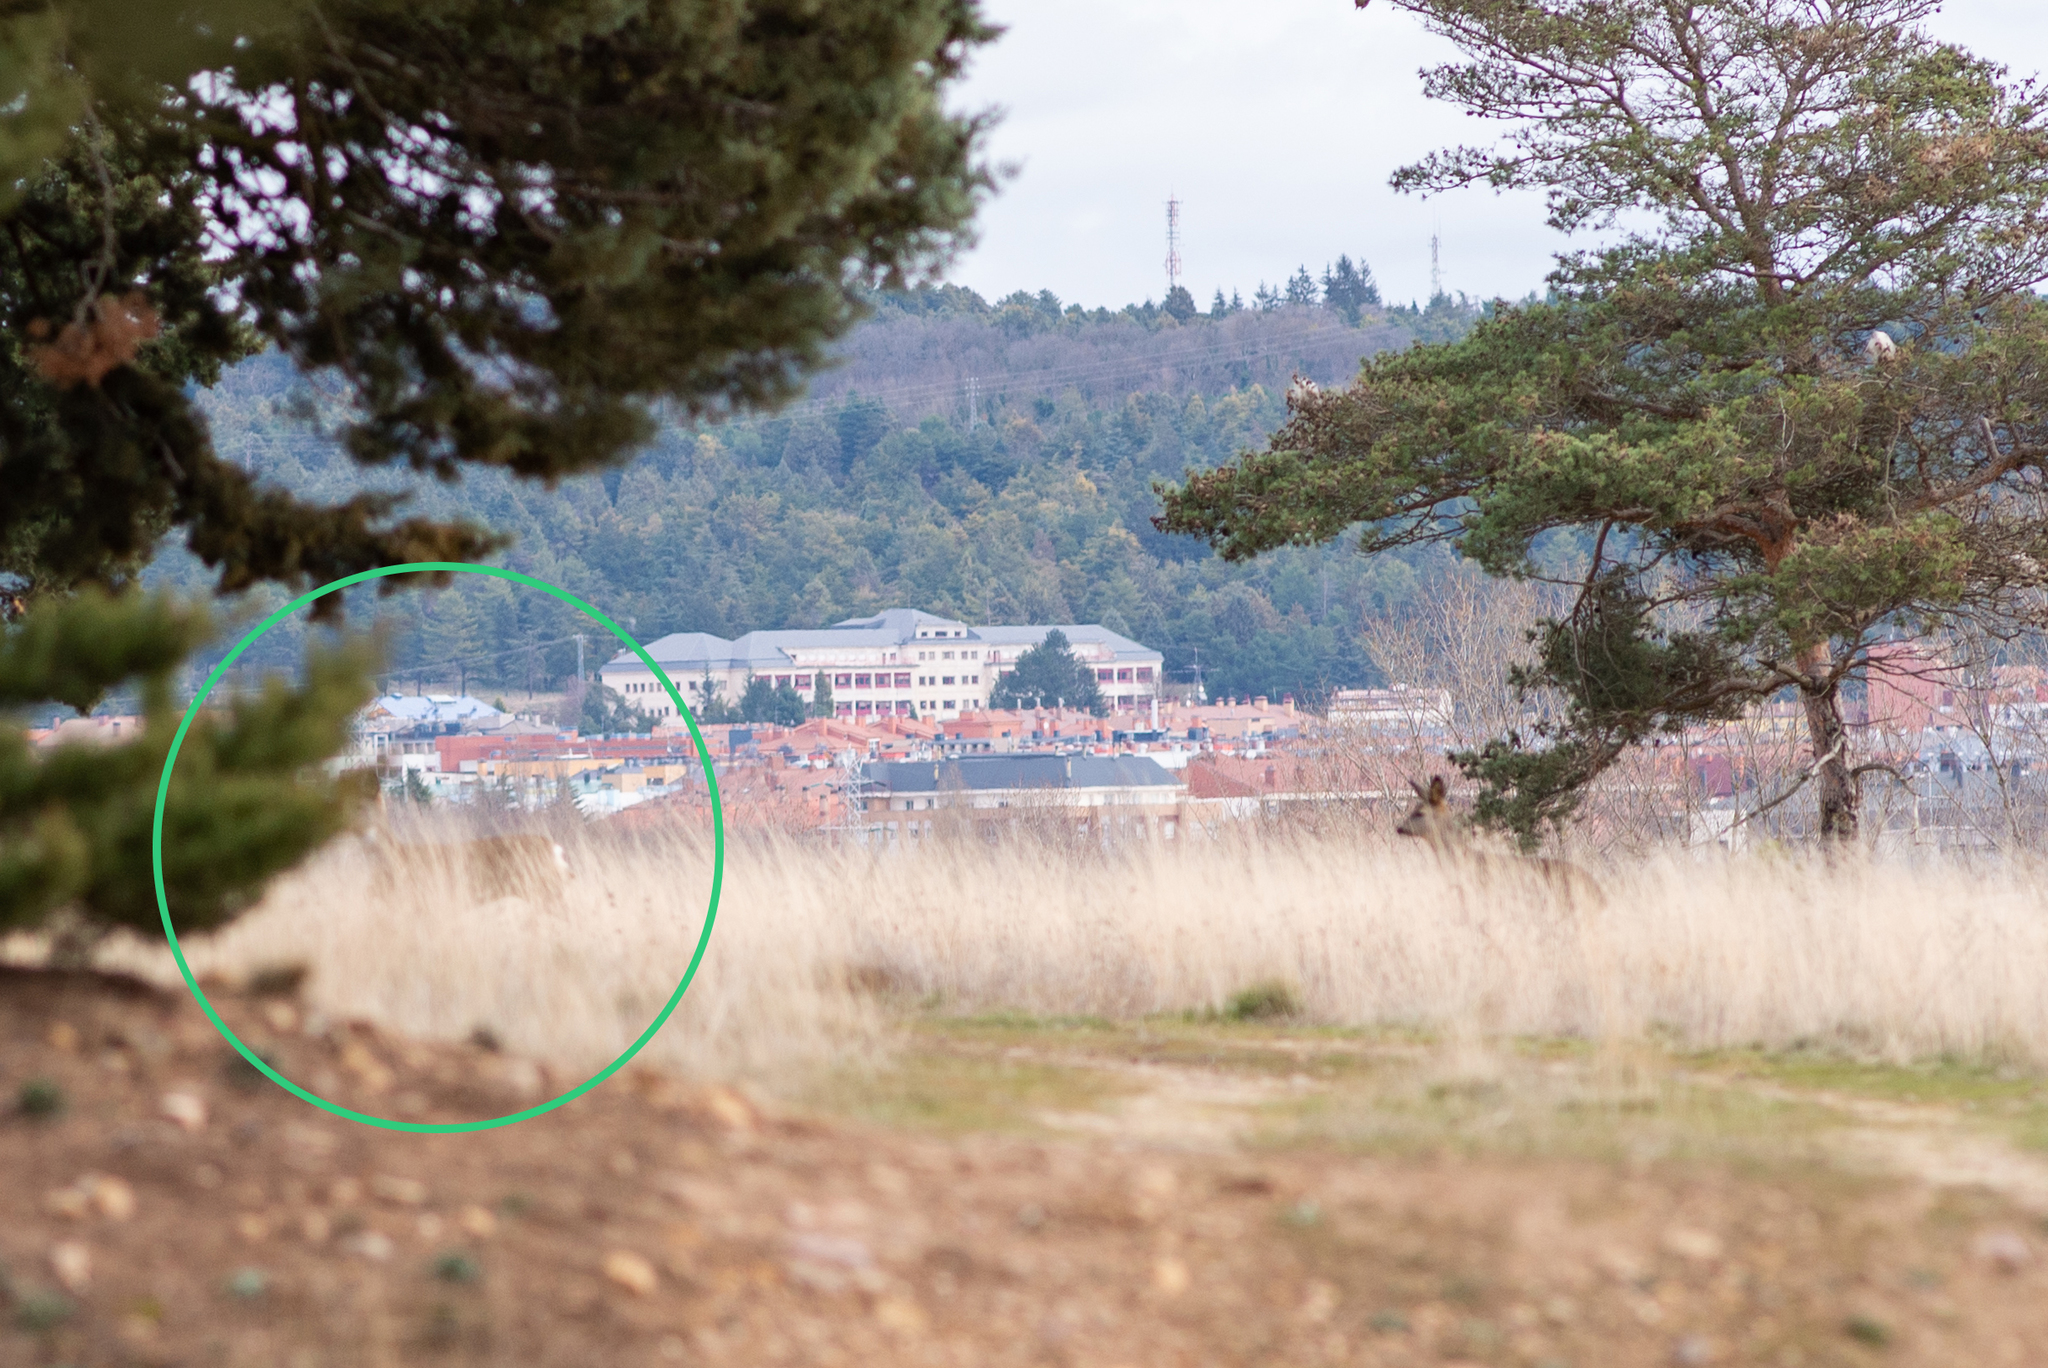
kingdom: Animalia
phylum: Chordata
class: Mammalia
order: Artiodactyla
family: Cervidae
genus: Capreolus
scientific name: Capreolus capreolus
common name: Western roe deer
